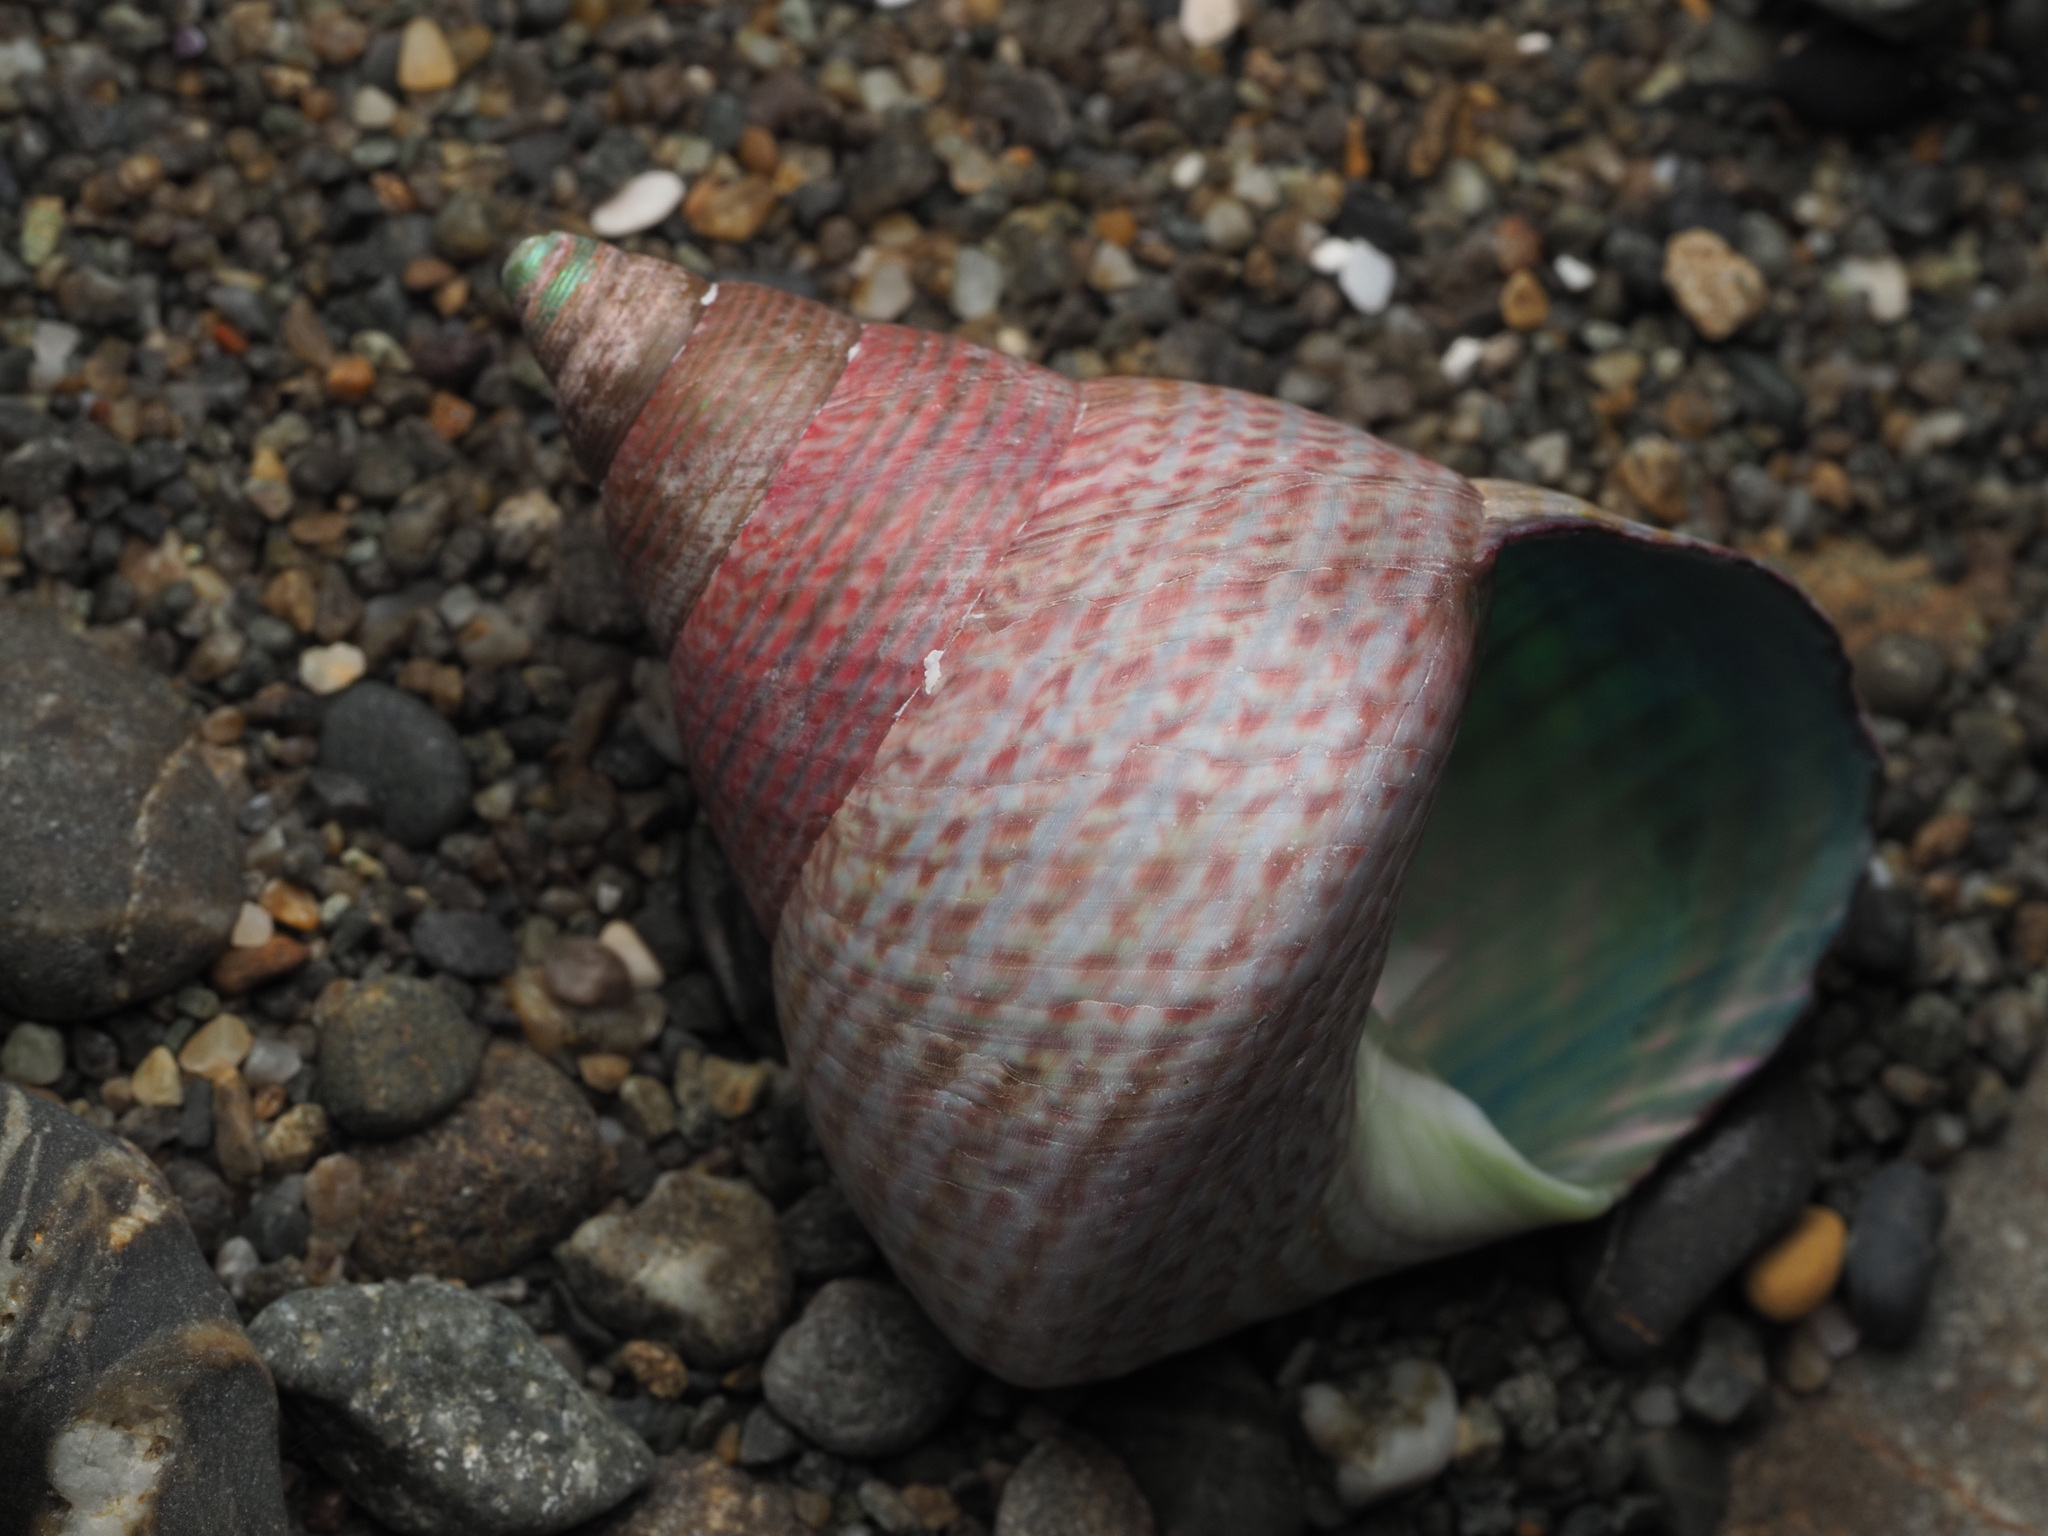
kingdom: Animalia
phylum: Mollusca
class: Gastropoda
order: Trochida
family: Trochidae
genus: Cantharidus
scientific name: Cantharidus opalus
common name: Opal jewel topsnail
